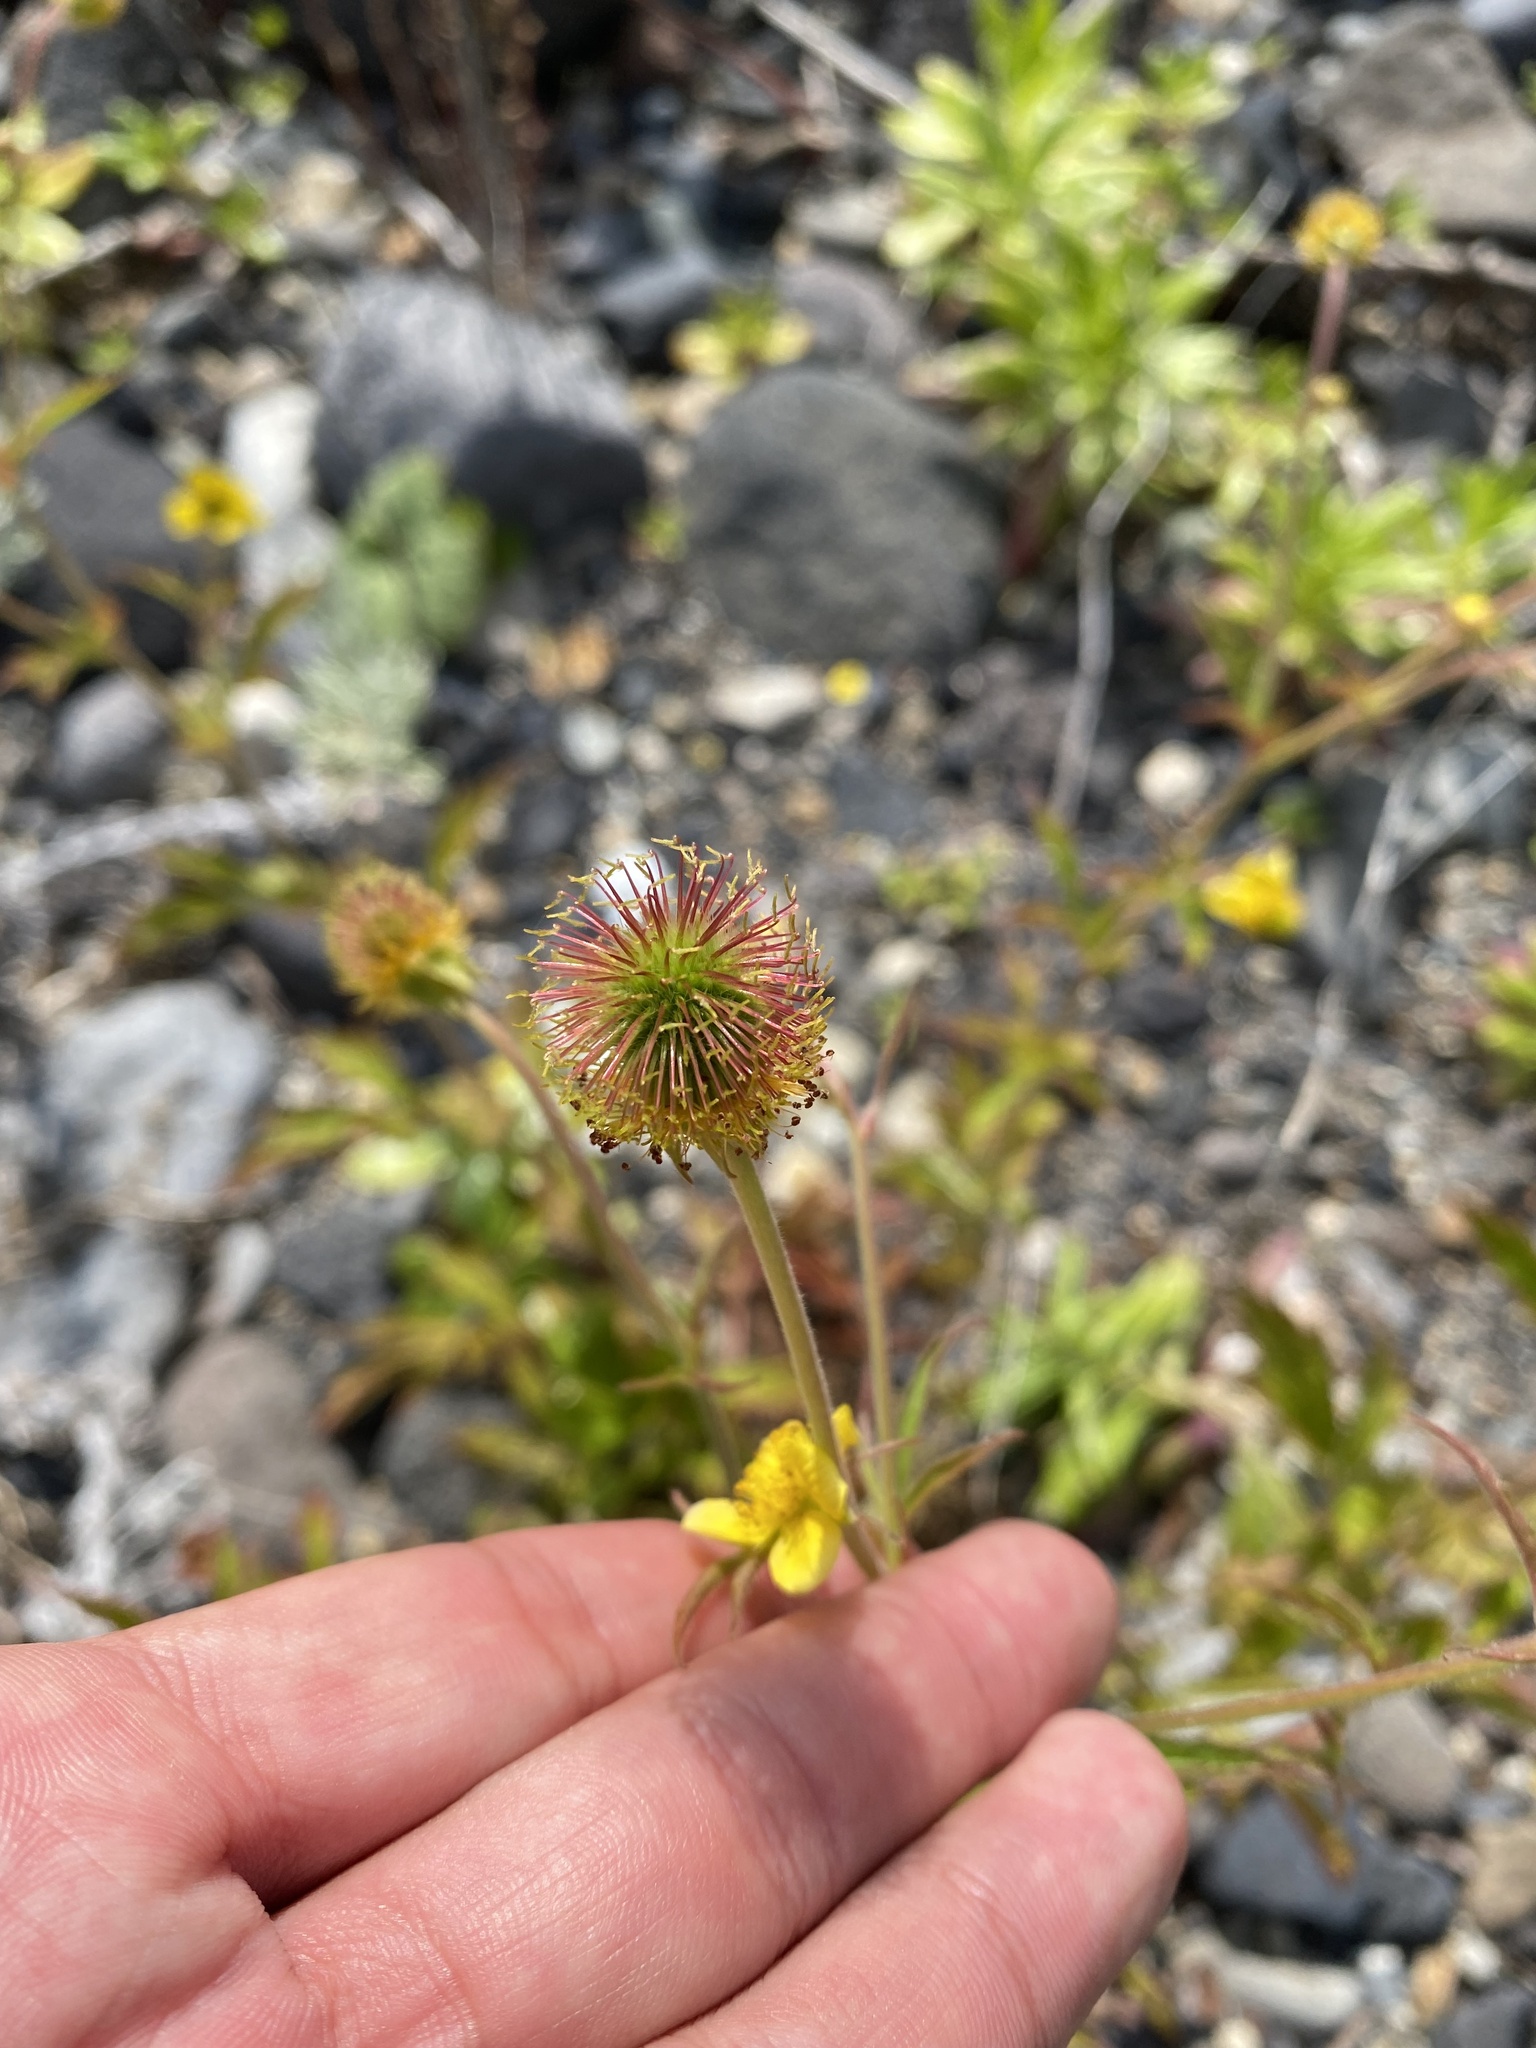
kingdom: Plantae
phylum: Tracheophyta
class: Magnoliopsida
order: Rosales
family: Rosaceae
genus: Geum
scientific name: Geum aleppicum
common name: Yellow avens
